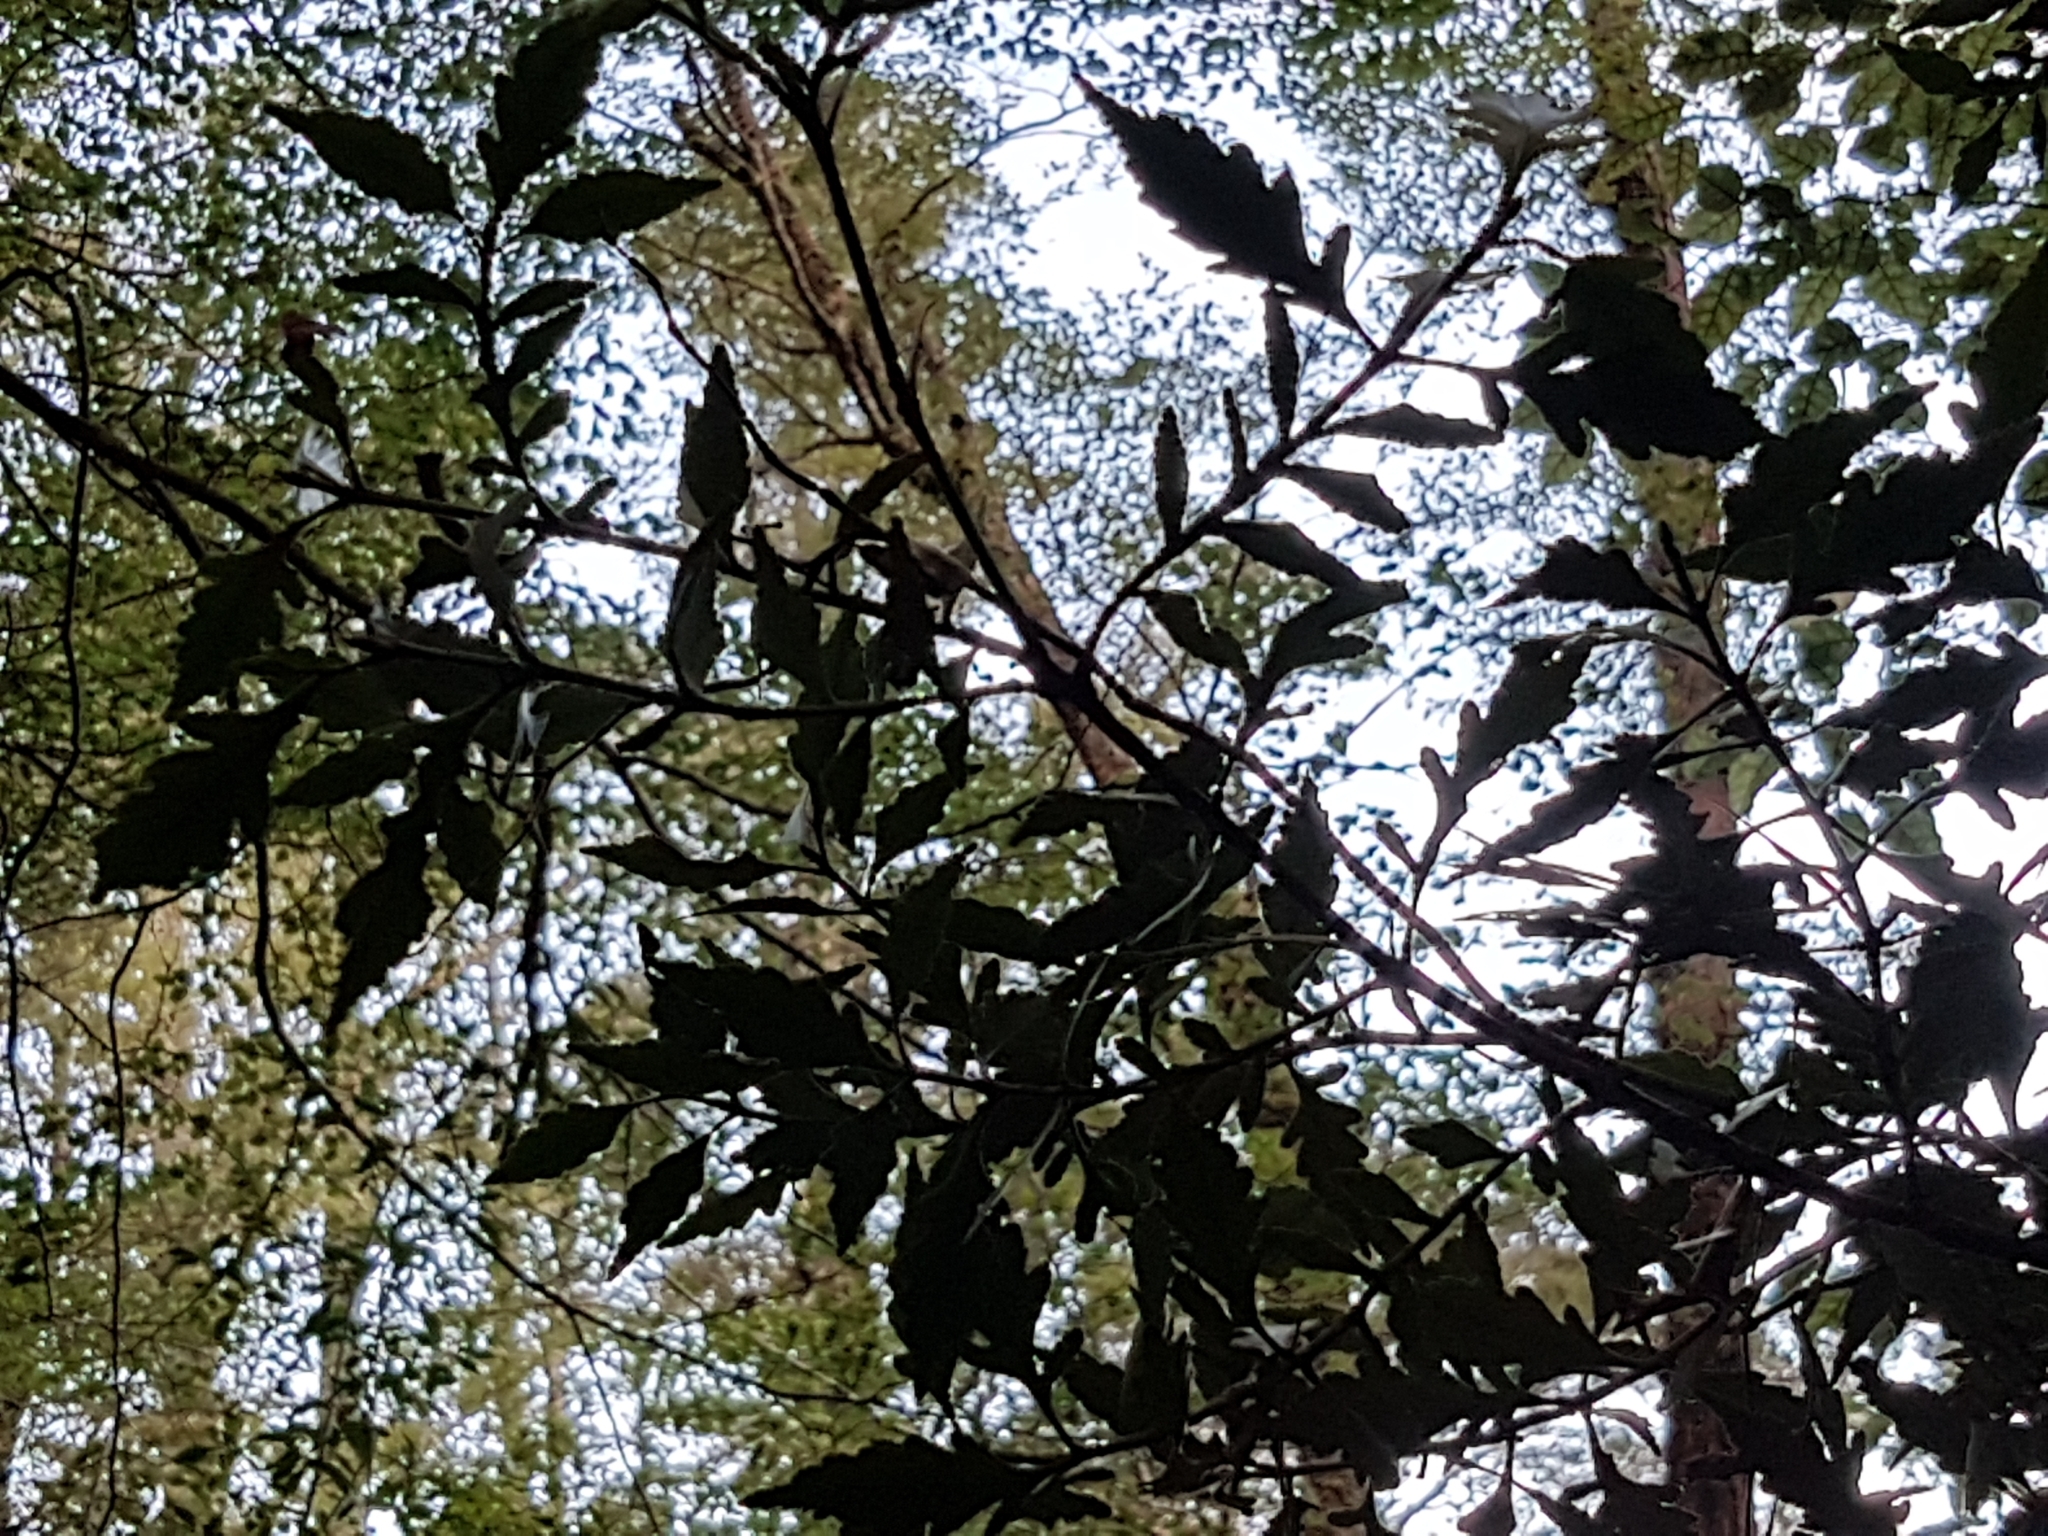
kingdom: Plantae
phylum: Tracheophyta
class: Magnoliopsida
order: Oxalidales
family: Elaeocarpaceae
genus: Elaeocarpus
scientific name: Elaeocarpus hookerianus
